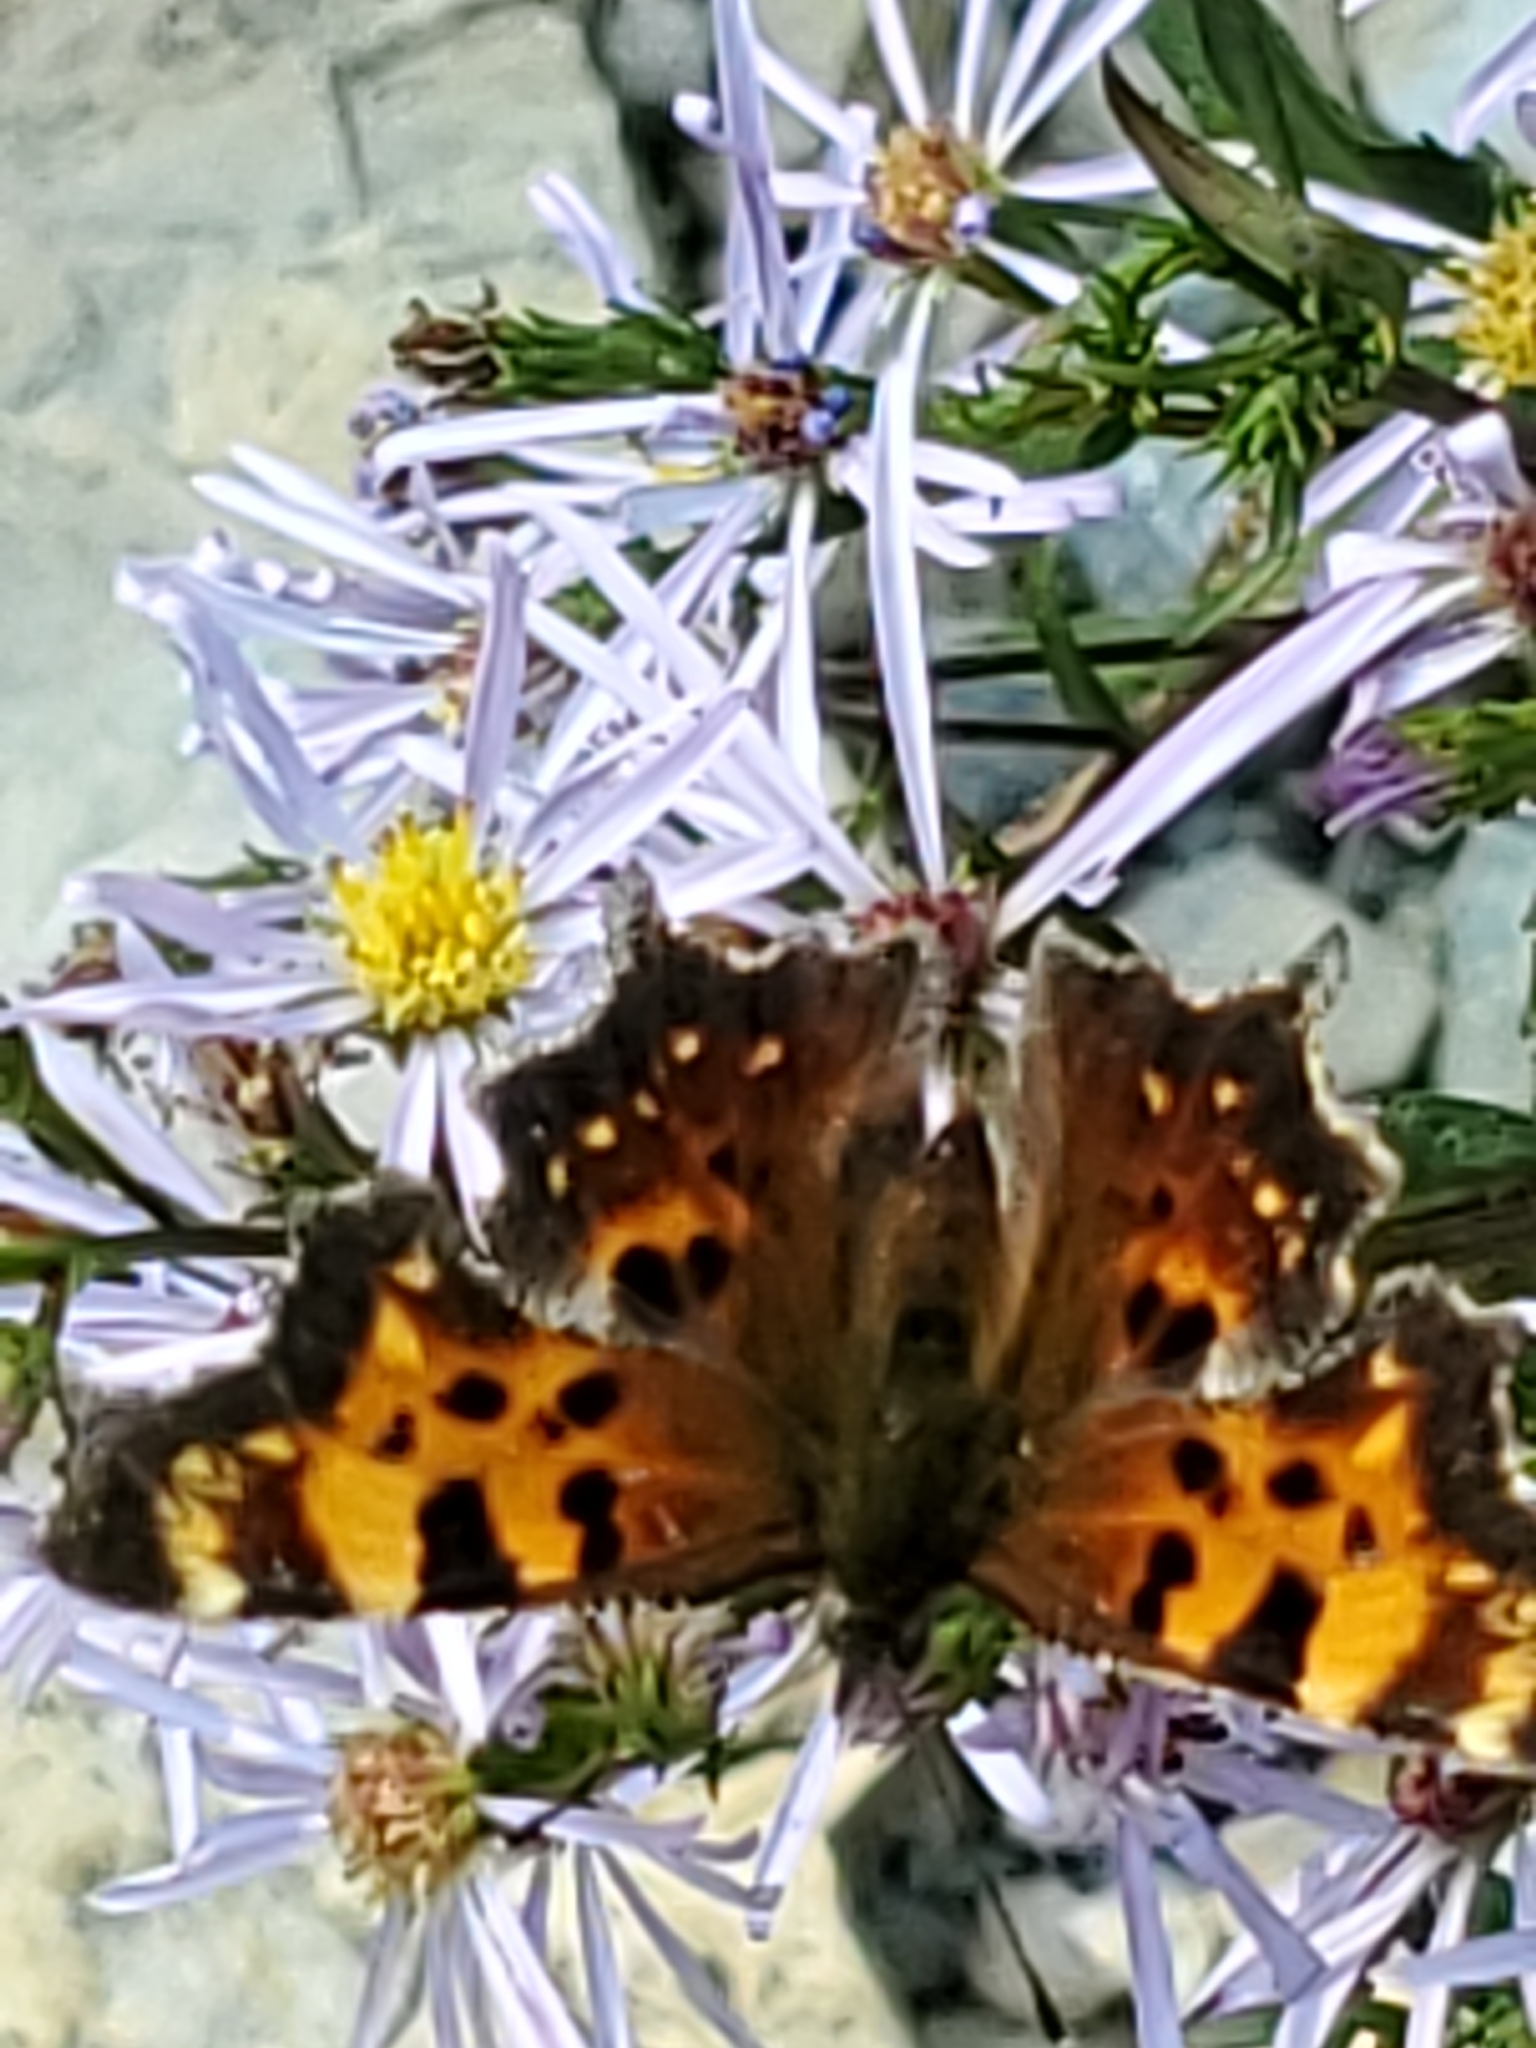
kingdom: Animalia
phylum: Arthropoda
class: Insecta
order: Lepidoptera
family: Nymphalidae
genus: Polygonia
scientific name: Polygonia faunus
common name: Green comma
